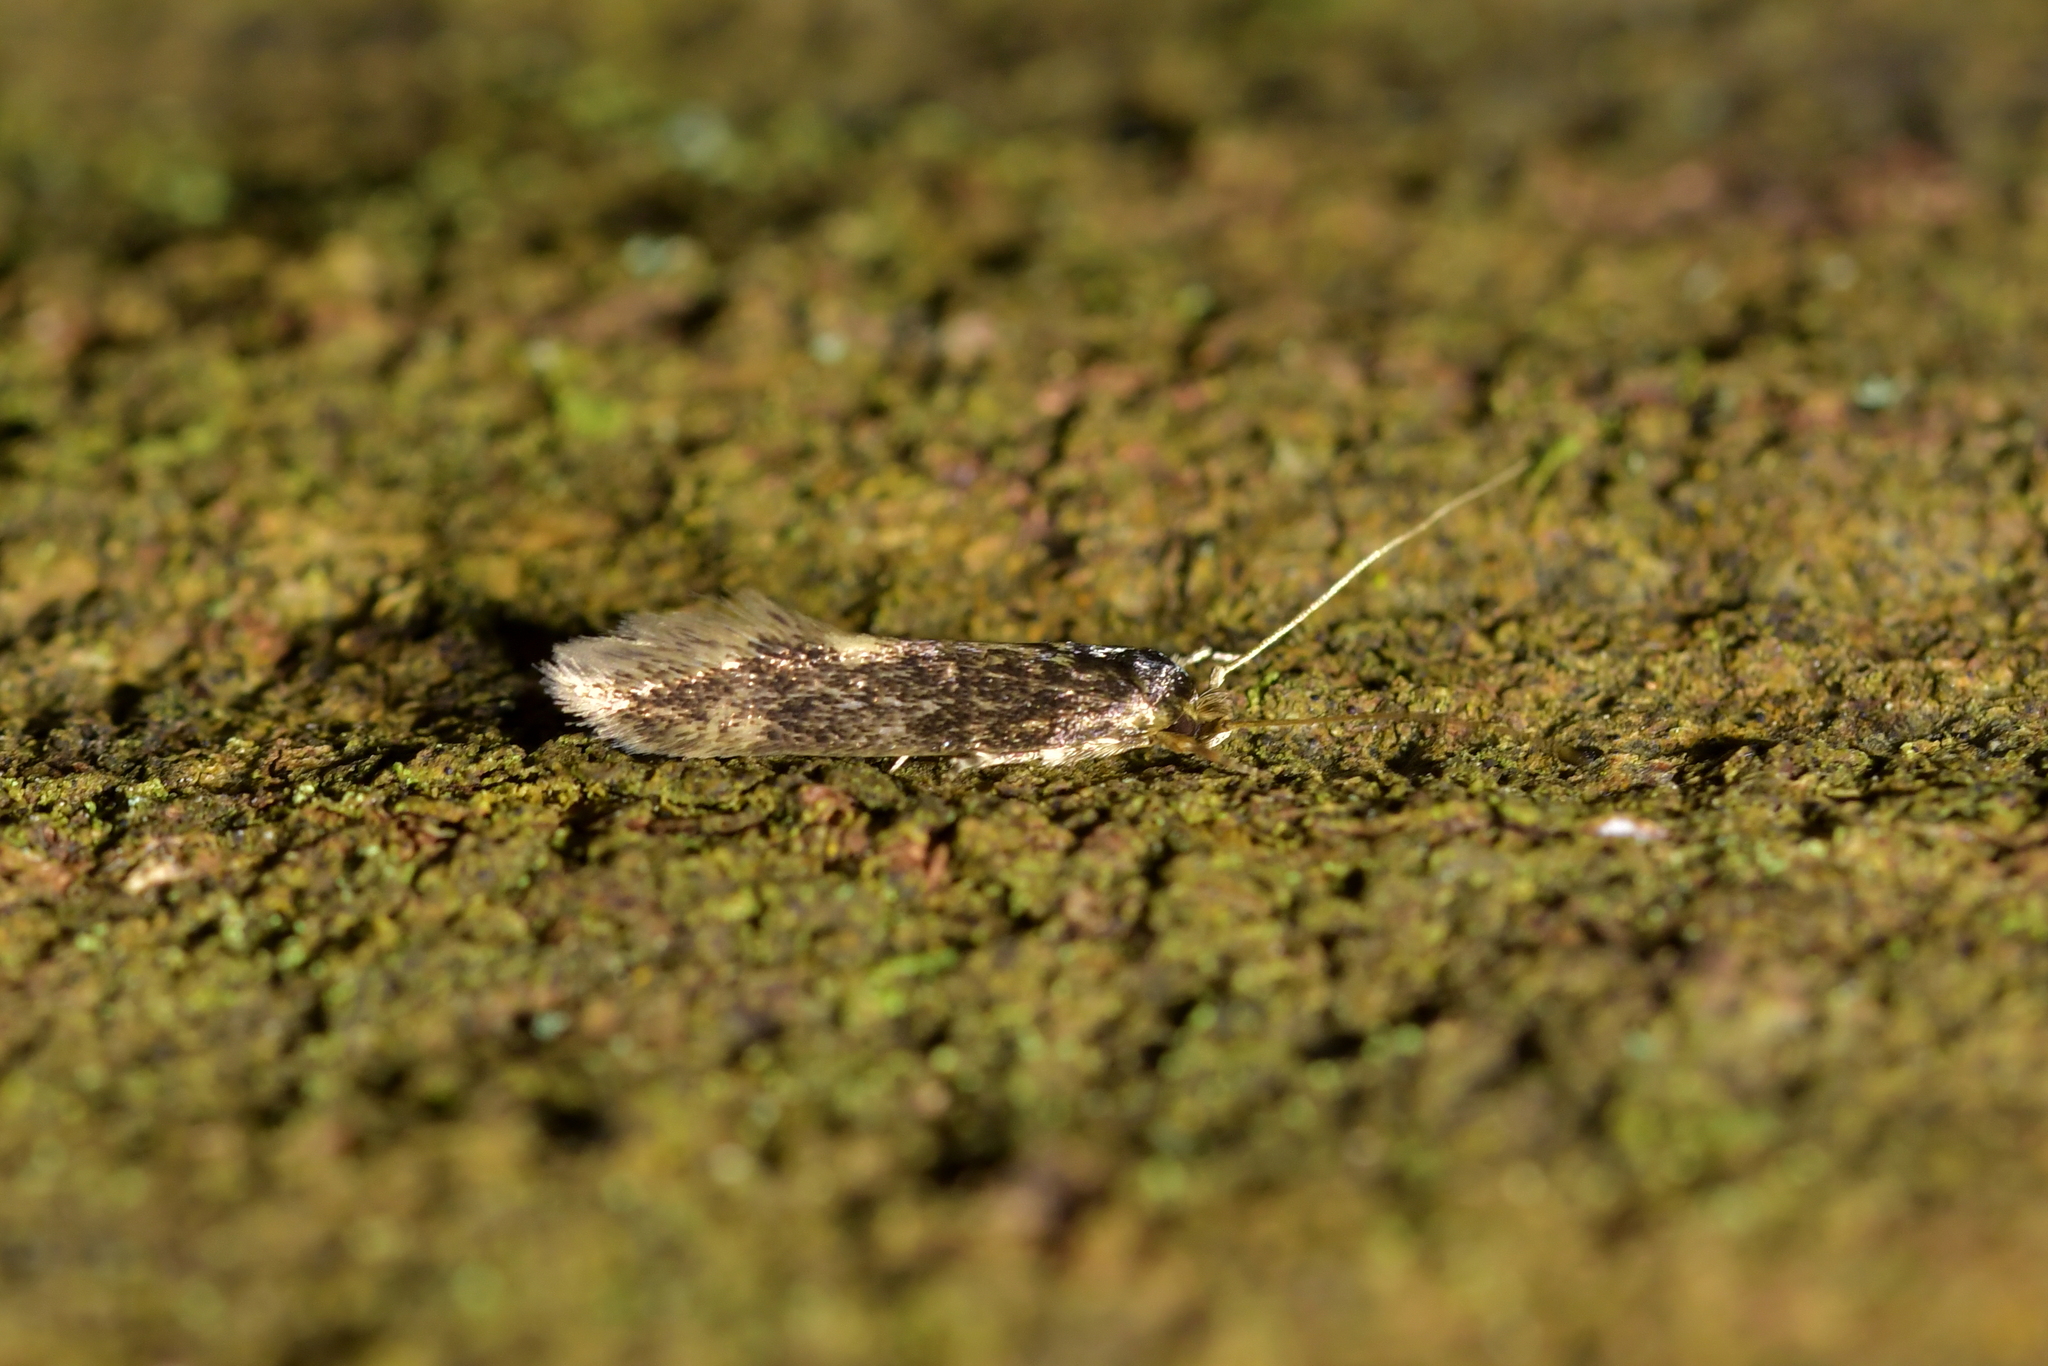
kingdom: Animalia
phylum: Arthropoda
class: Insecta
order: Lepidoptera
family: Tineidae
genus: Opogona
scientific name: Opogona omoscopa
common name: Moth
